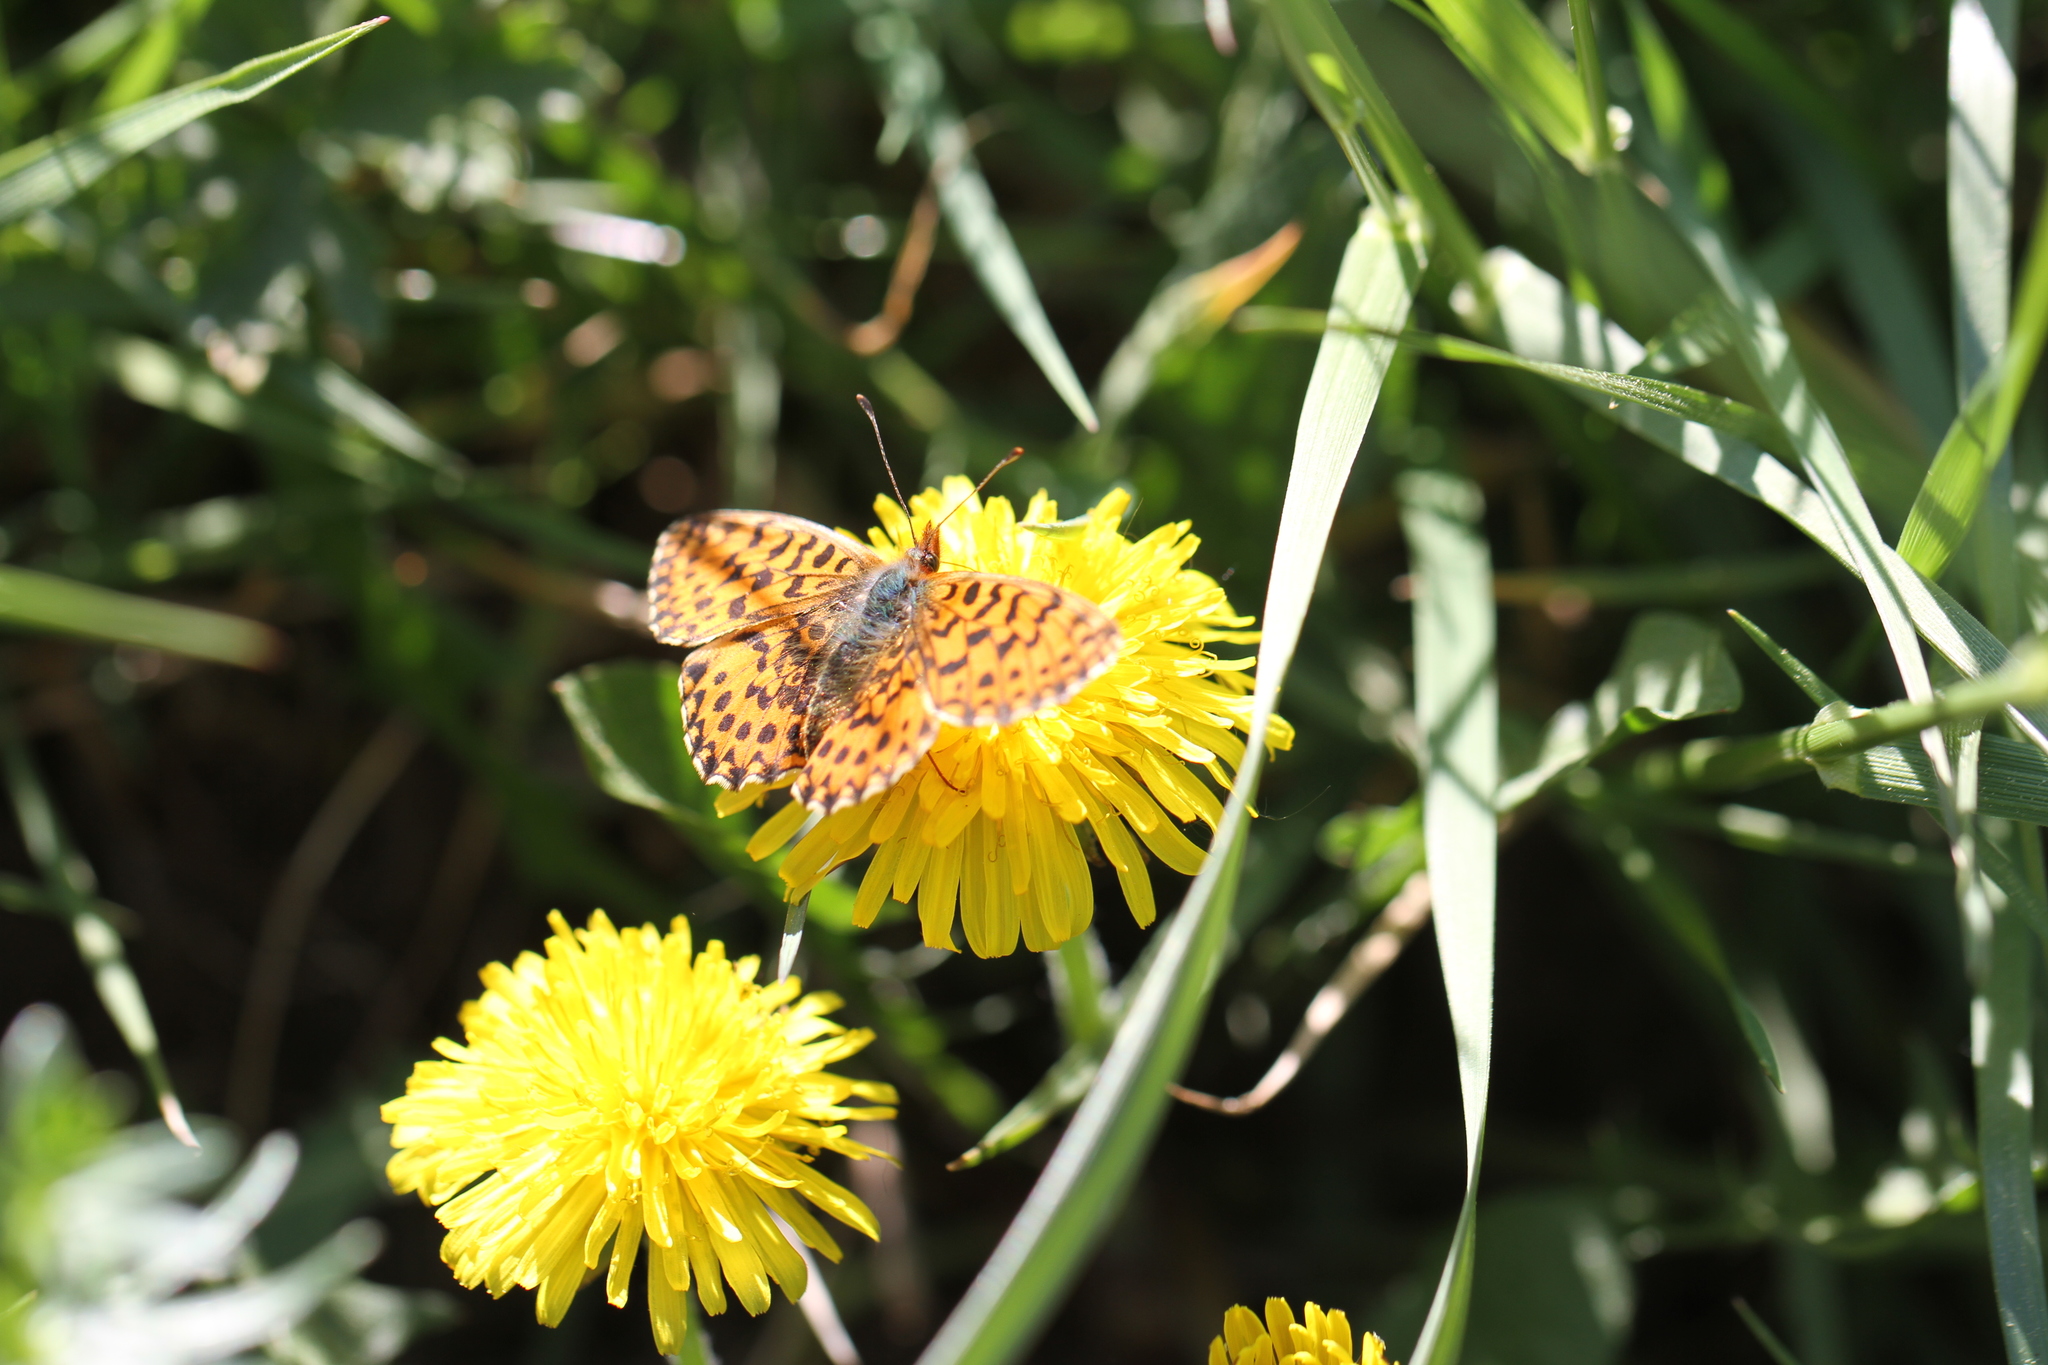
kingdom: Animalia
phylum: Arthropoda
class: Insecta
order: Lepidoptera
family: Nymphalidae
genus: Boloria
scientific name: Boloria dia
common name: Weaver's fritillary
